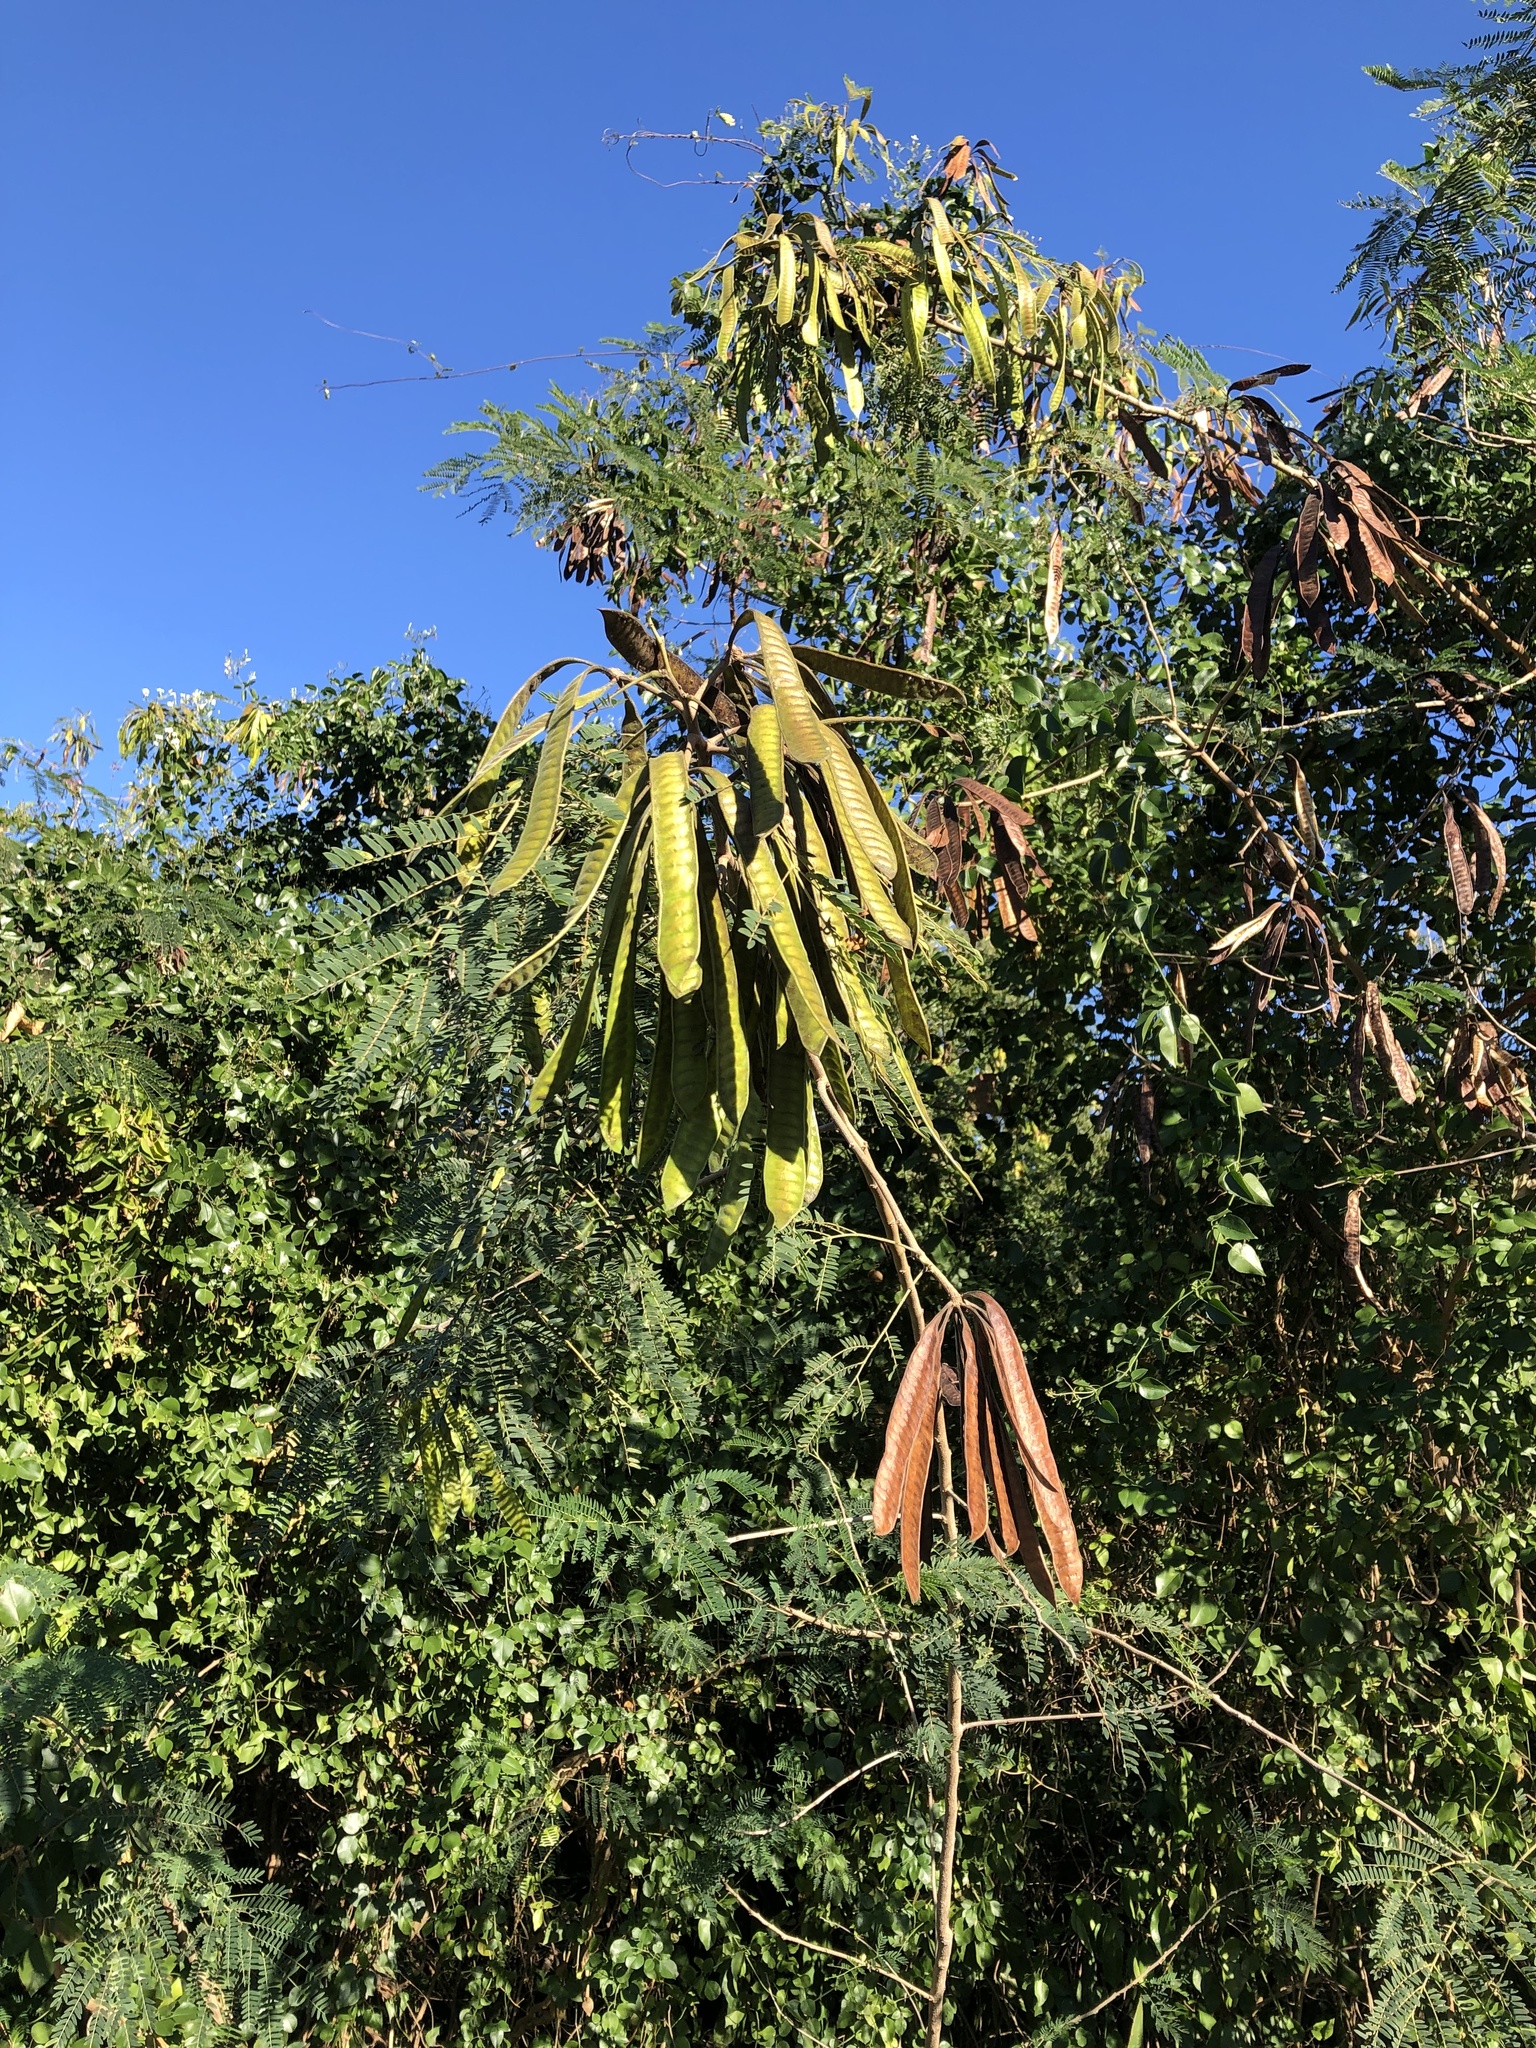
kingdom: Plantae
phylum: Tracheophyta
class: Magnoliopsida
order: Fabales
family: Fabaceae
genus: Leucaena
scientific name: Leucaena leucocephala
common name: White leadtree
